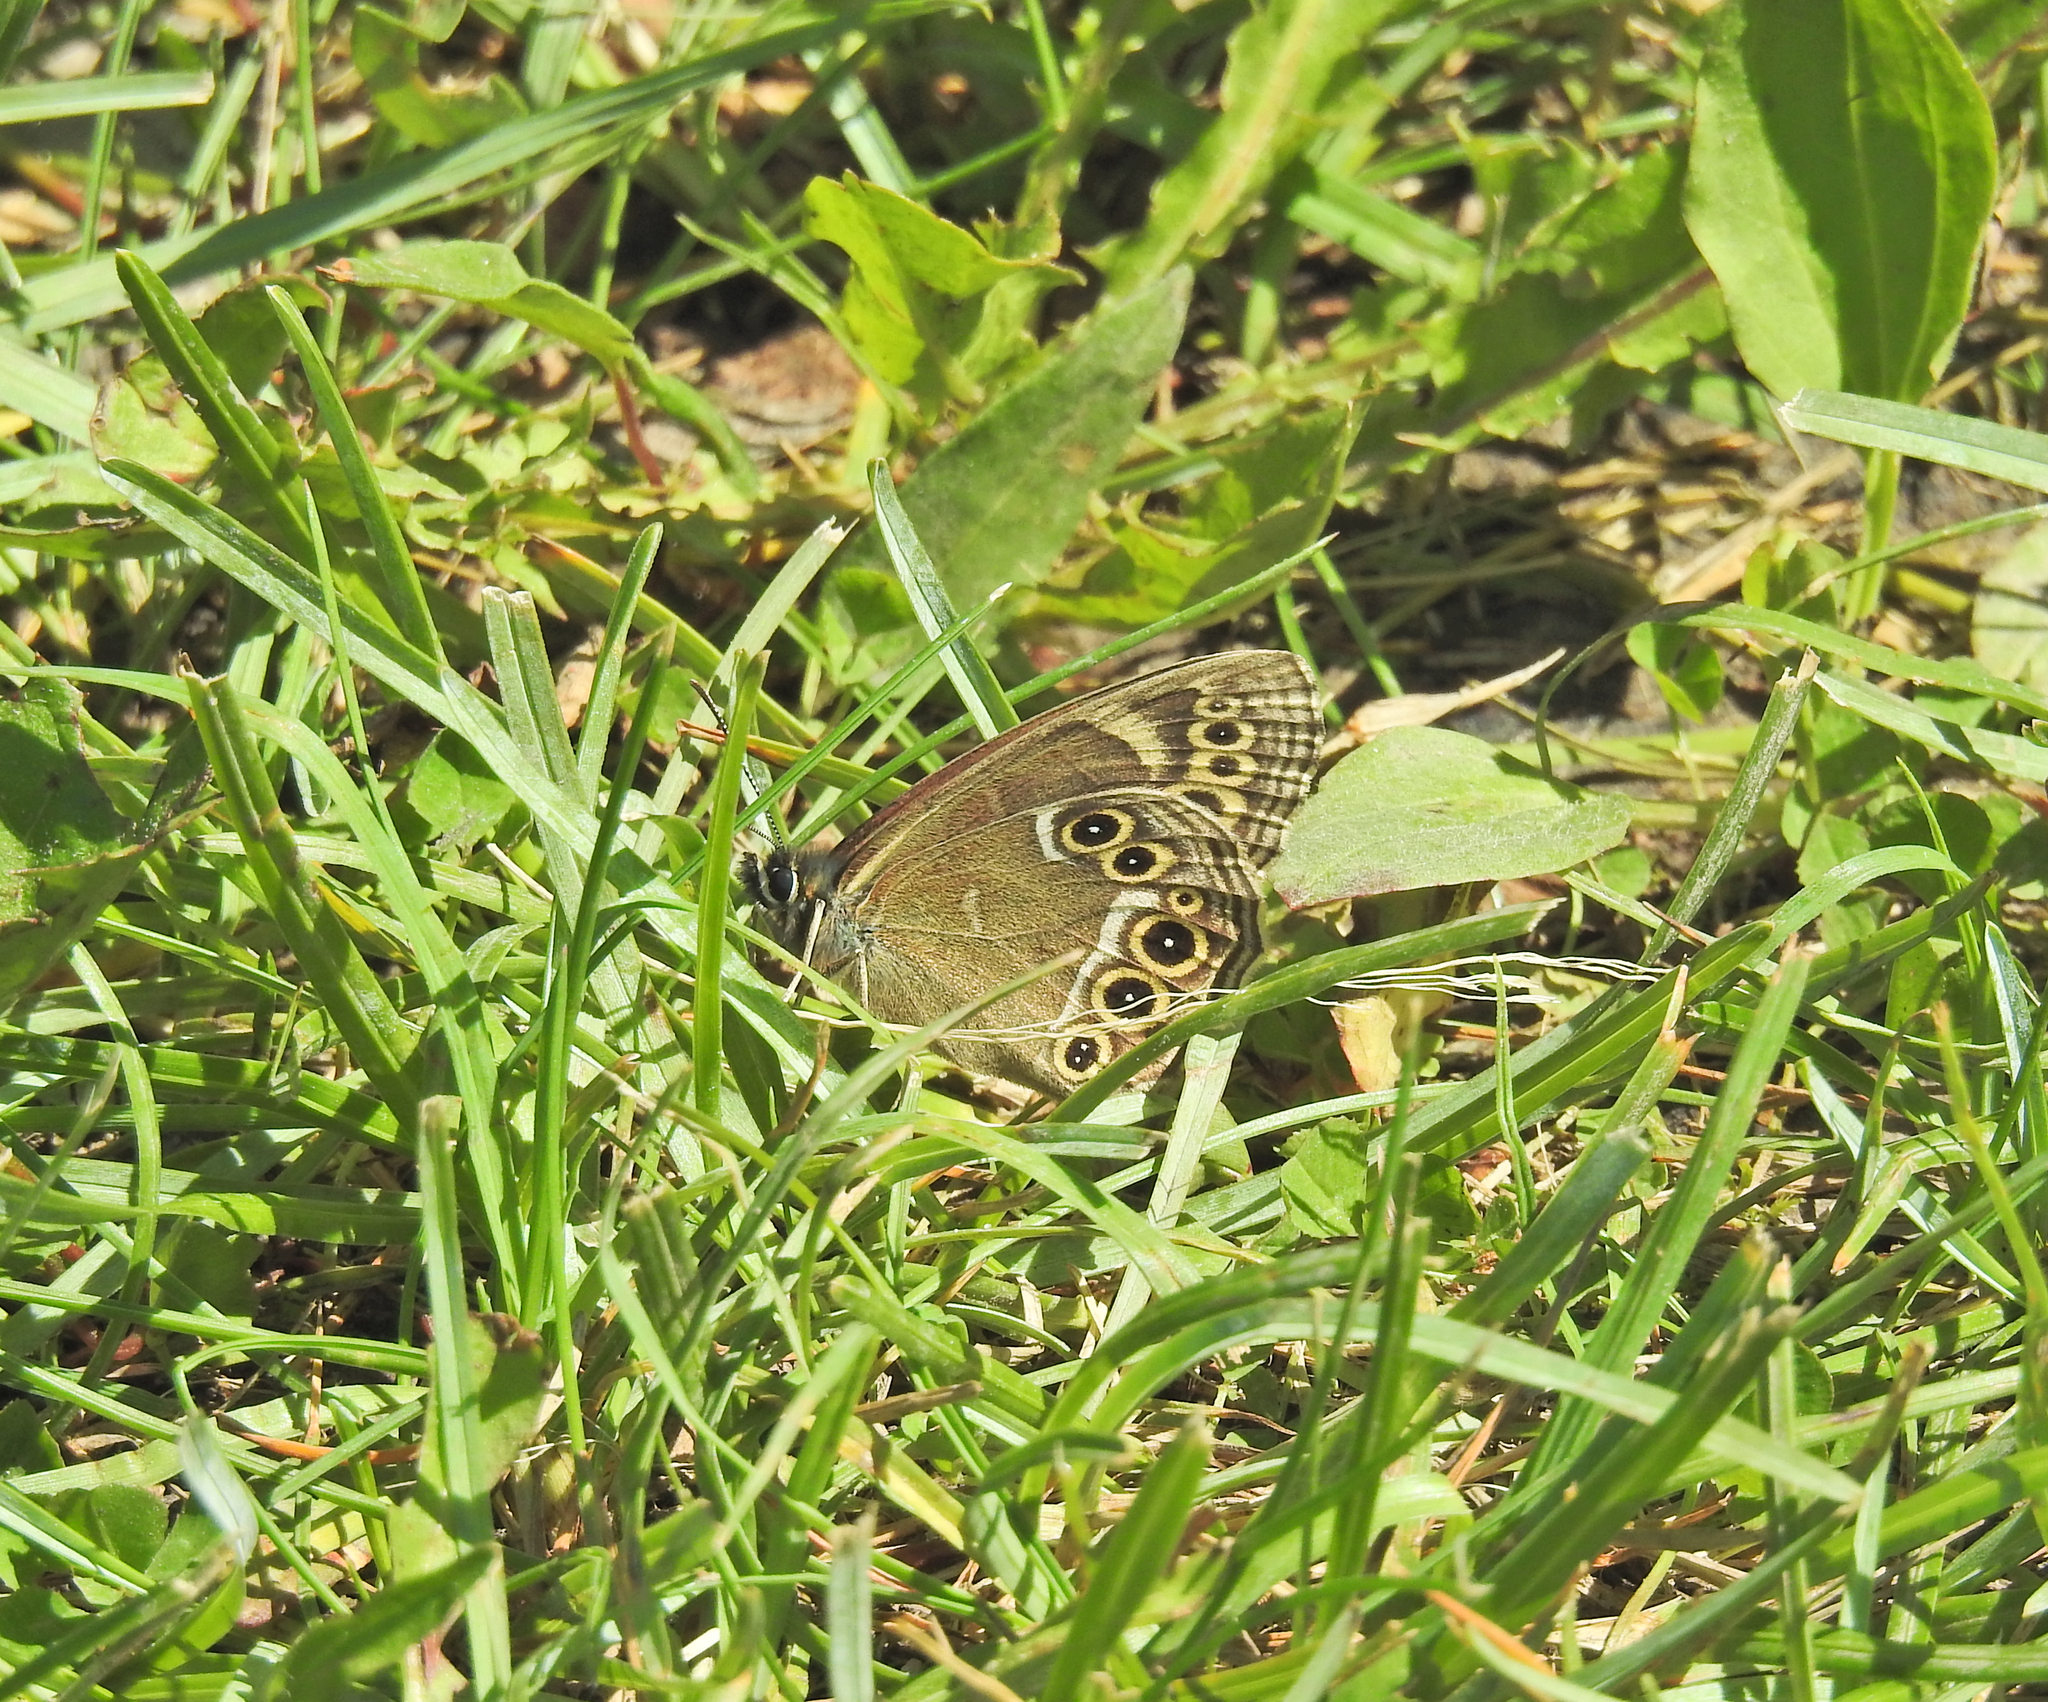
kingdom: Animalia
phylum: Arthropoda
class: Insecta
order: Lepidoptera
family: Nymphalidae
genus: Pararge
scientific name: Pararge Lopinga achine
